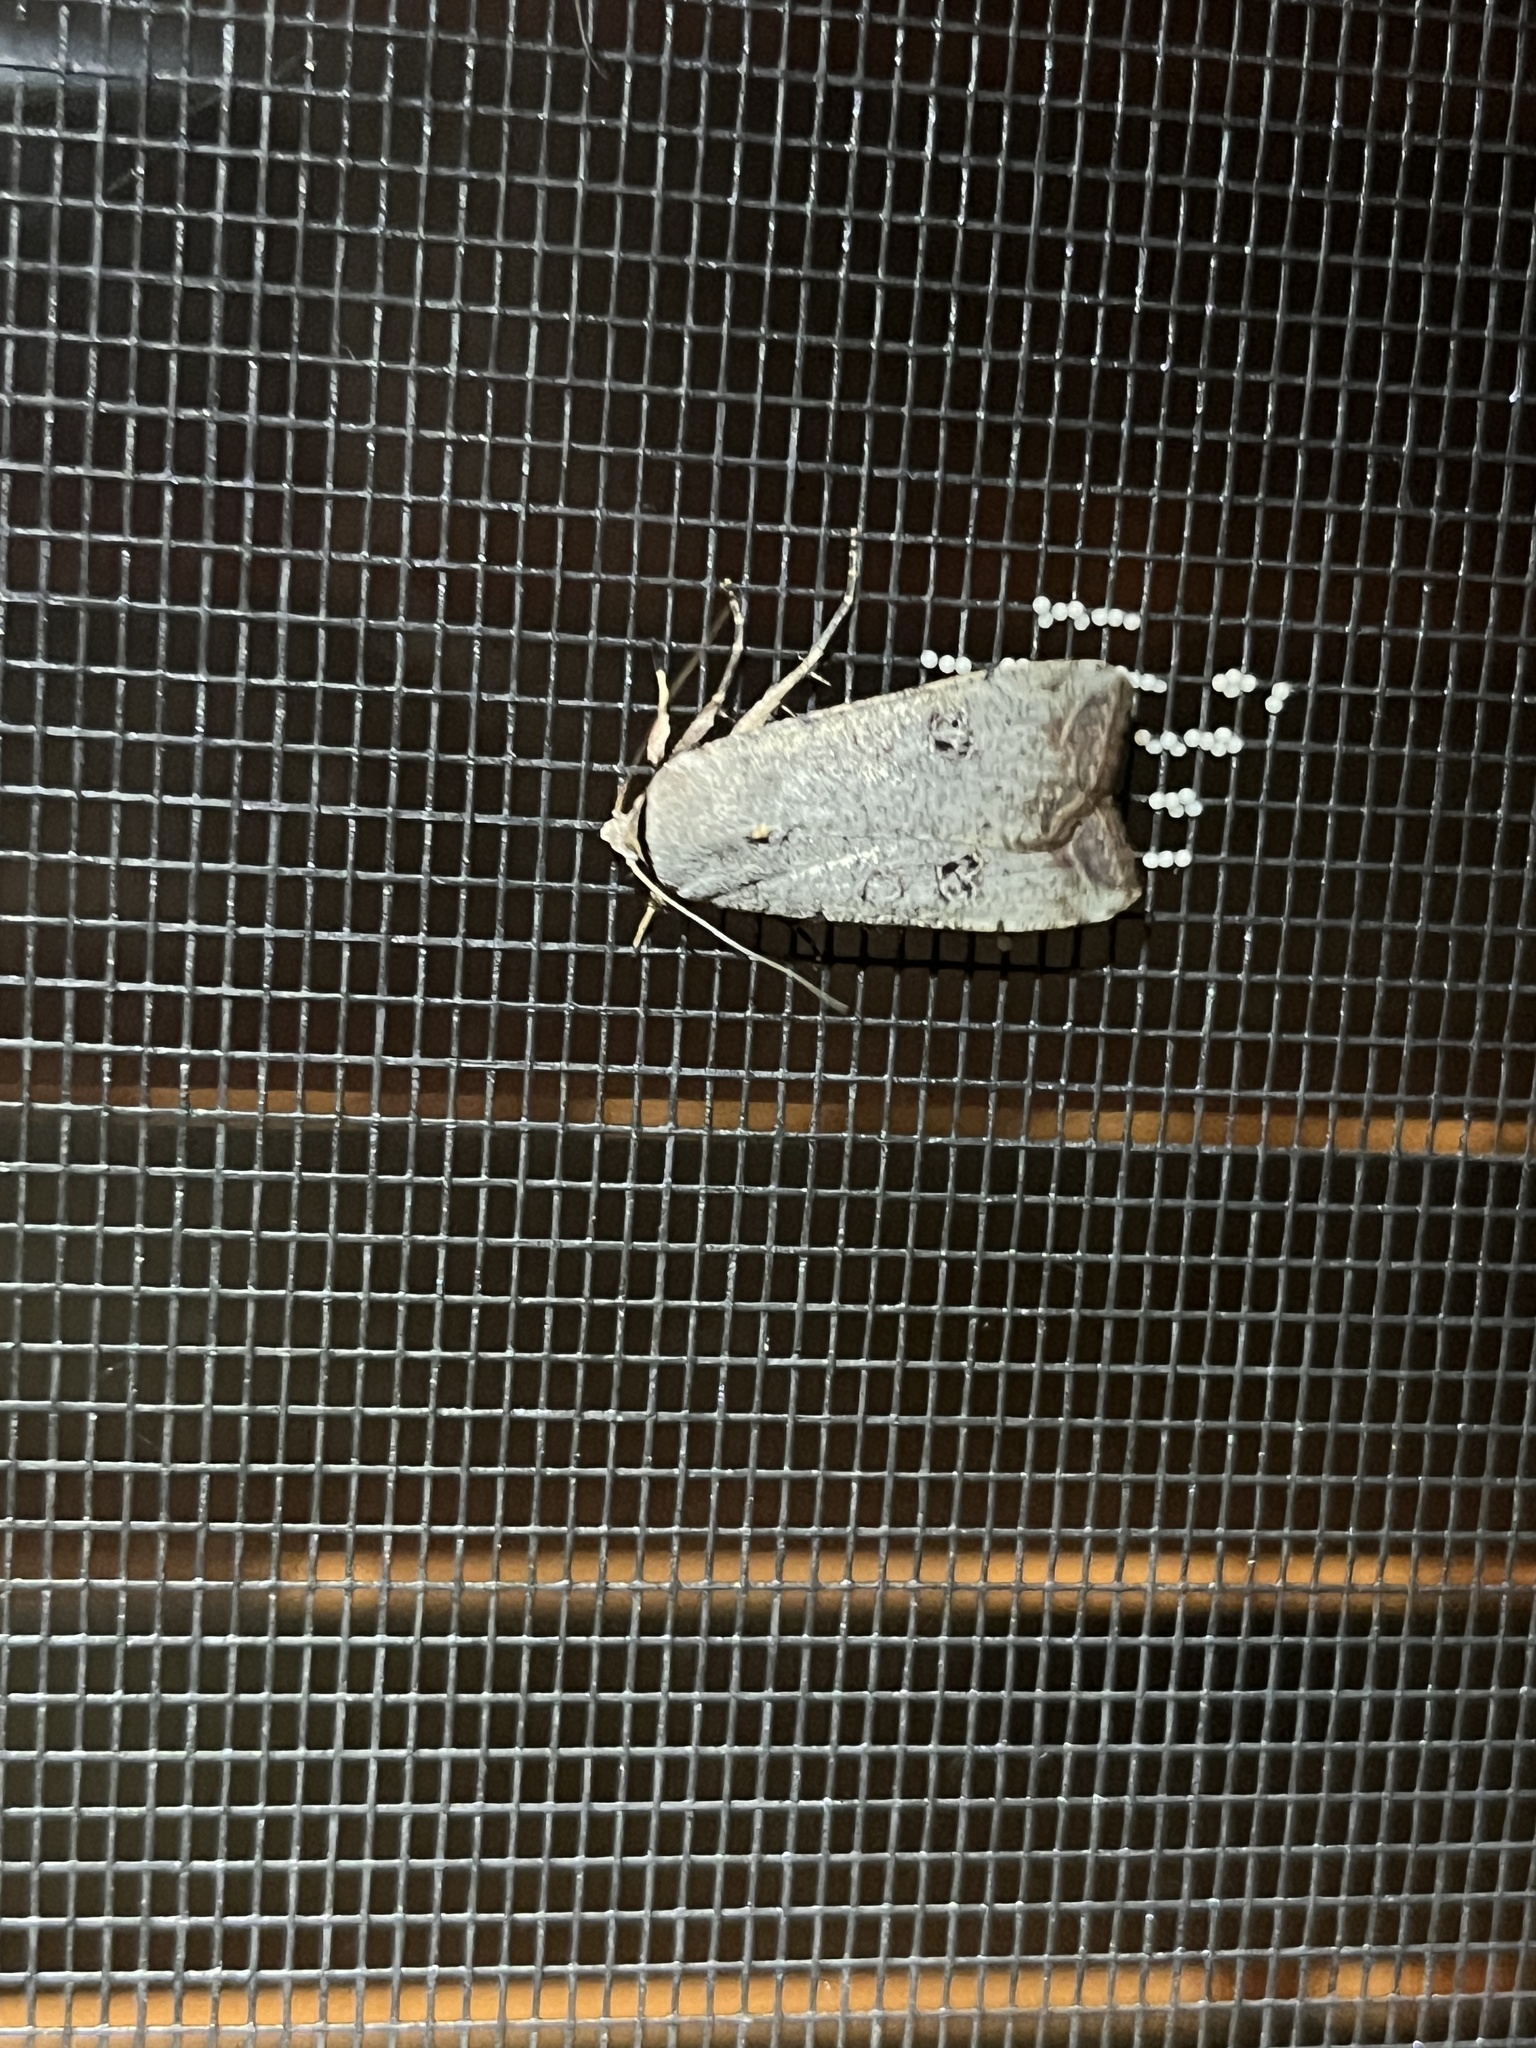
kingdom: Animalia
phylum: Arthropoda
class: Insecta
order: Lepidoptera
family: Noctuidae
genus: Anicla
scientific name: Anicla infecta
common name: Green cutworm
